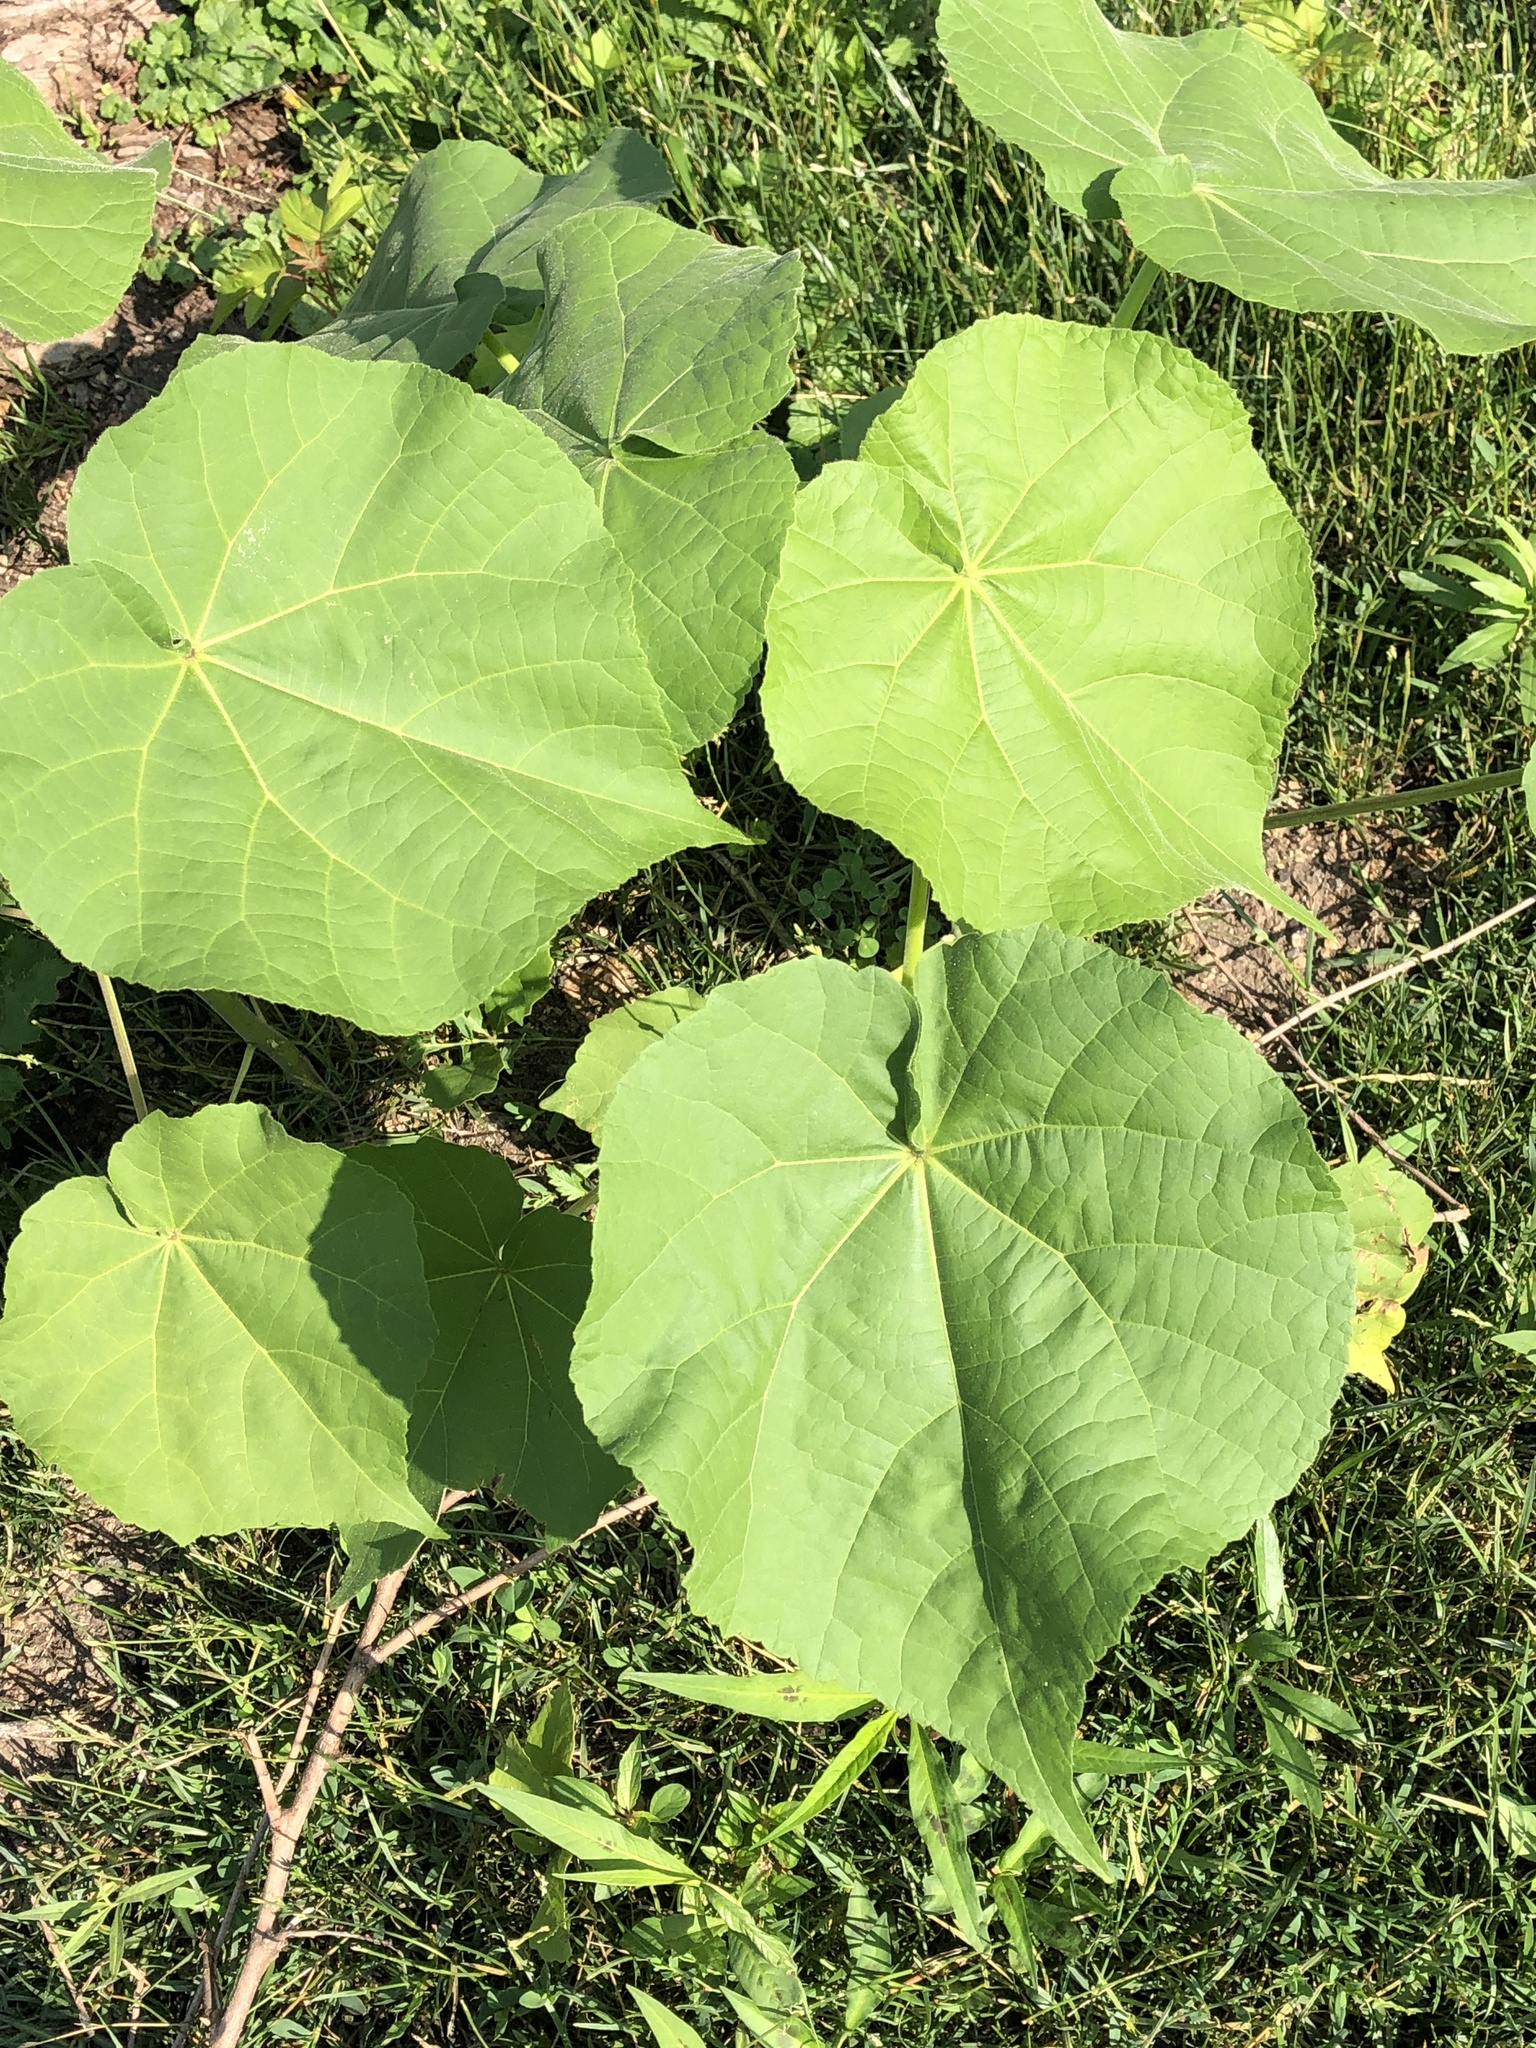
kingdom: Plantae
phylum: Tracheophyta
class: Magnoliopsida
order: Malvales
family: Malvaceae
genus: Abutilon
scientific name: Abutilon theophrasti
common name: Velvetleaf
